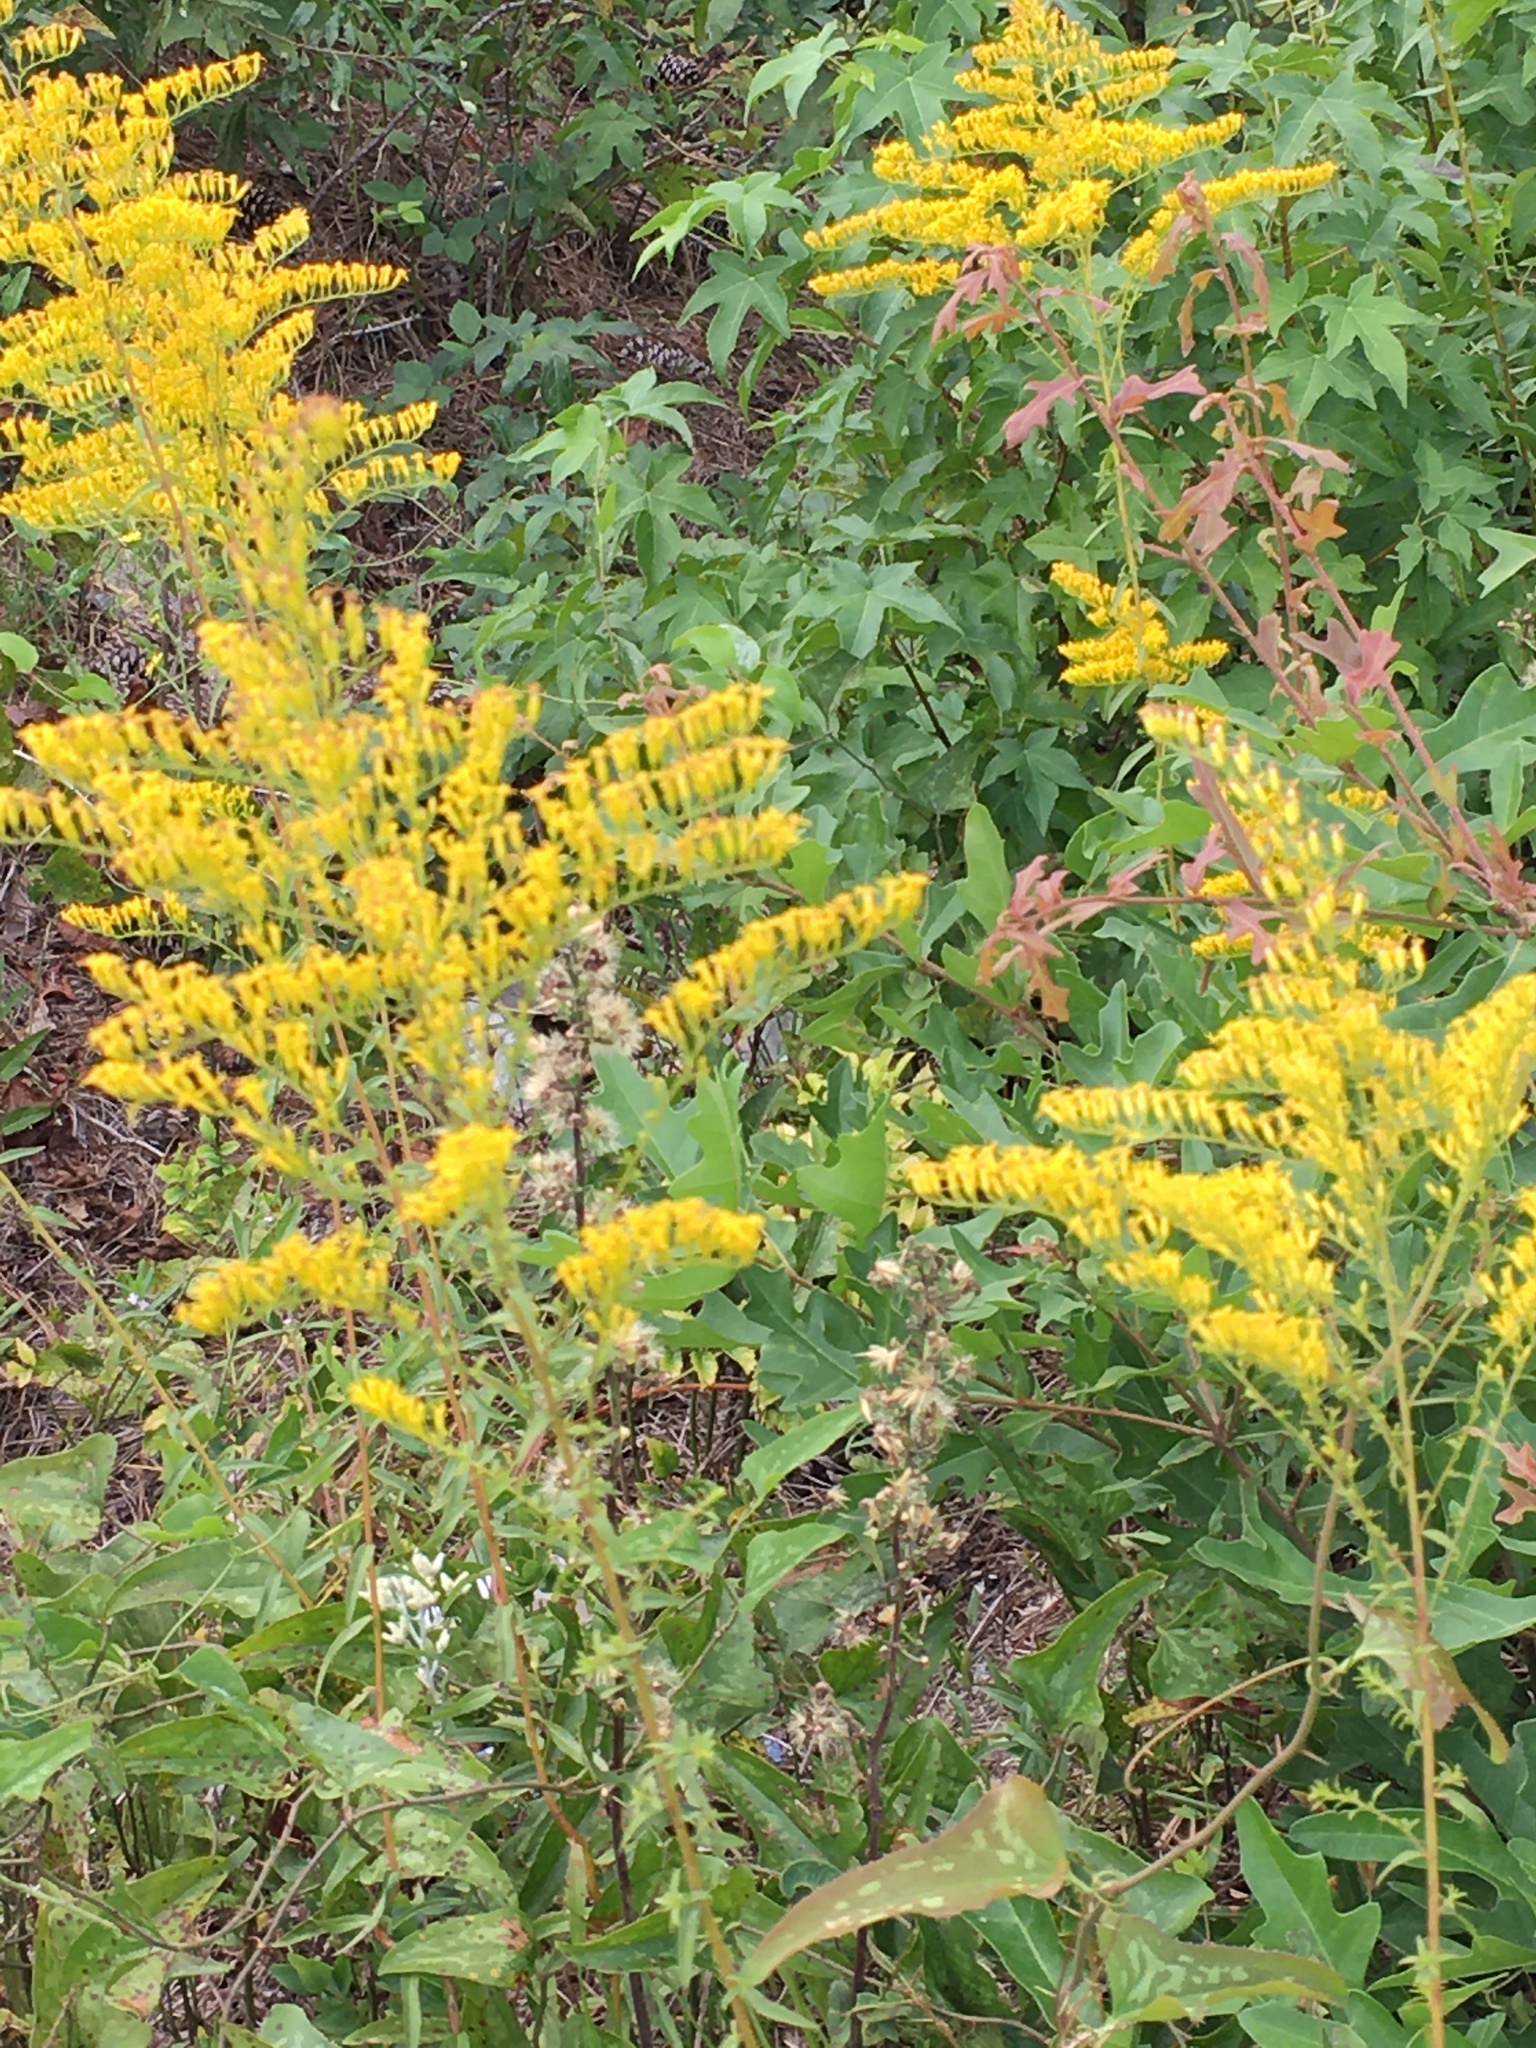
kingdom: Plantae
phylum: Tracheophyta
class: Magnoliopsida
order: Asterales
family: Asteraceae
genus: Solidago
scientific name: Solidago odora
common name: Anise-scented goldenrod
